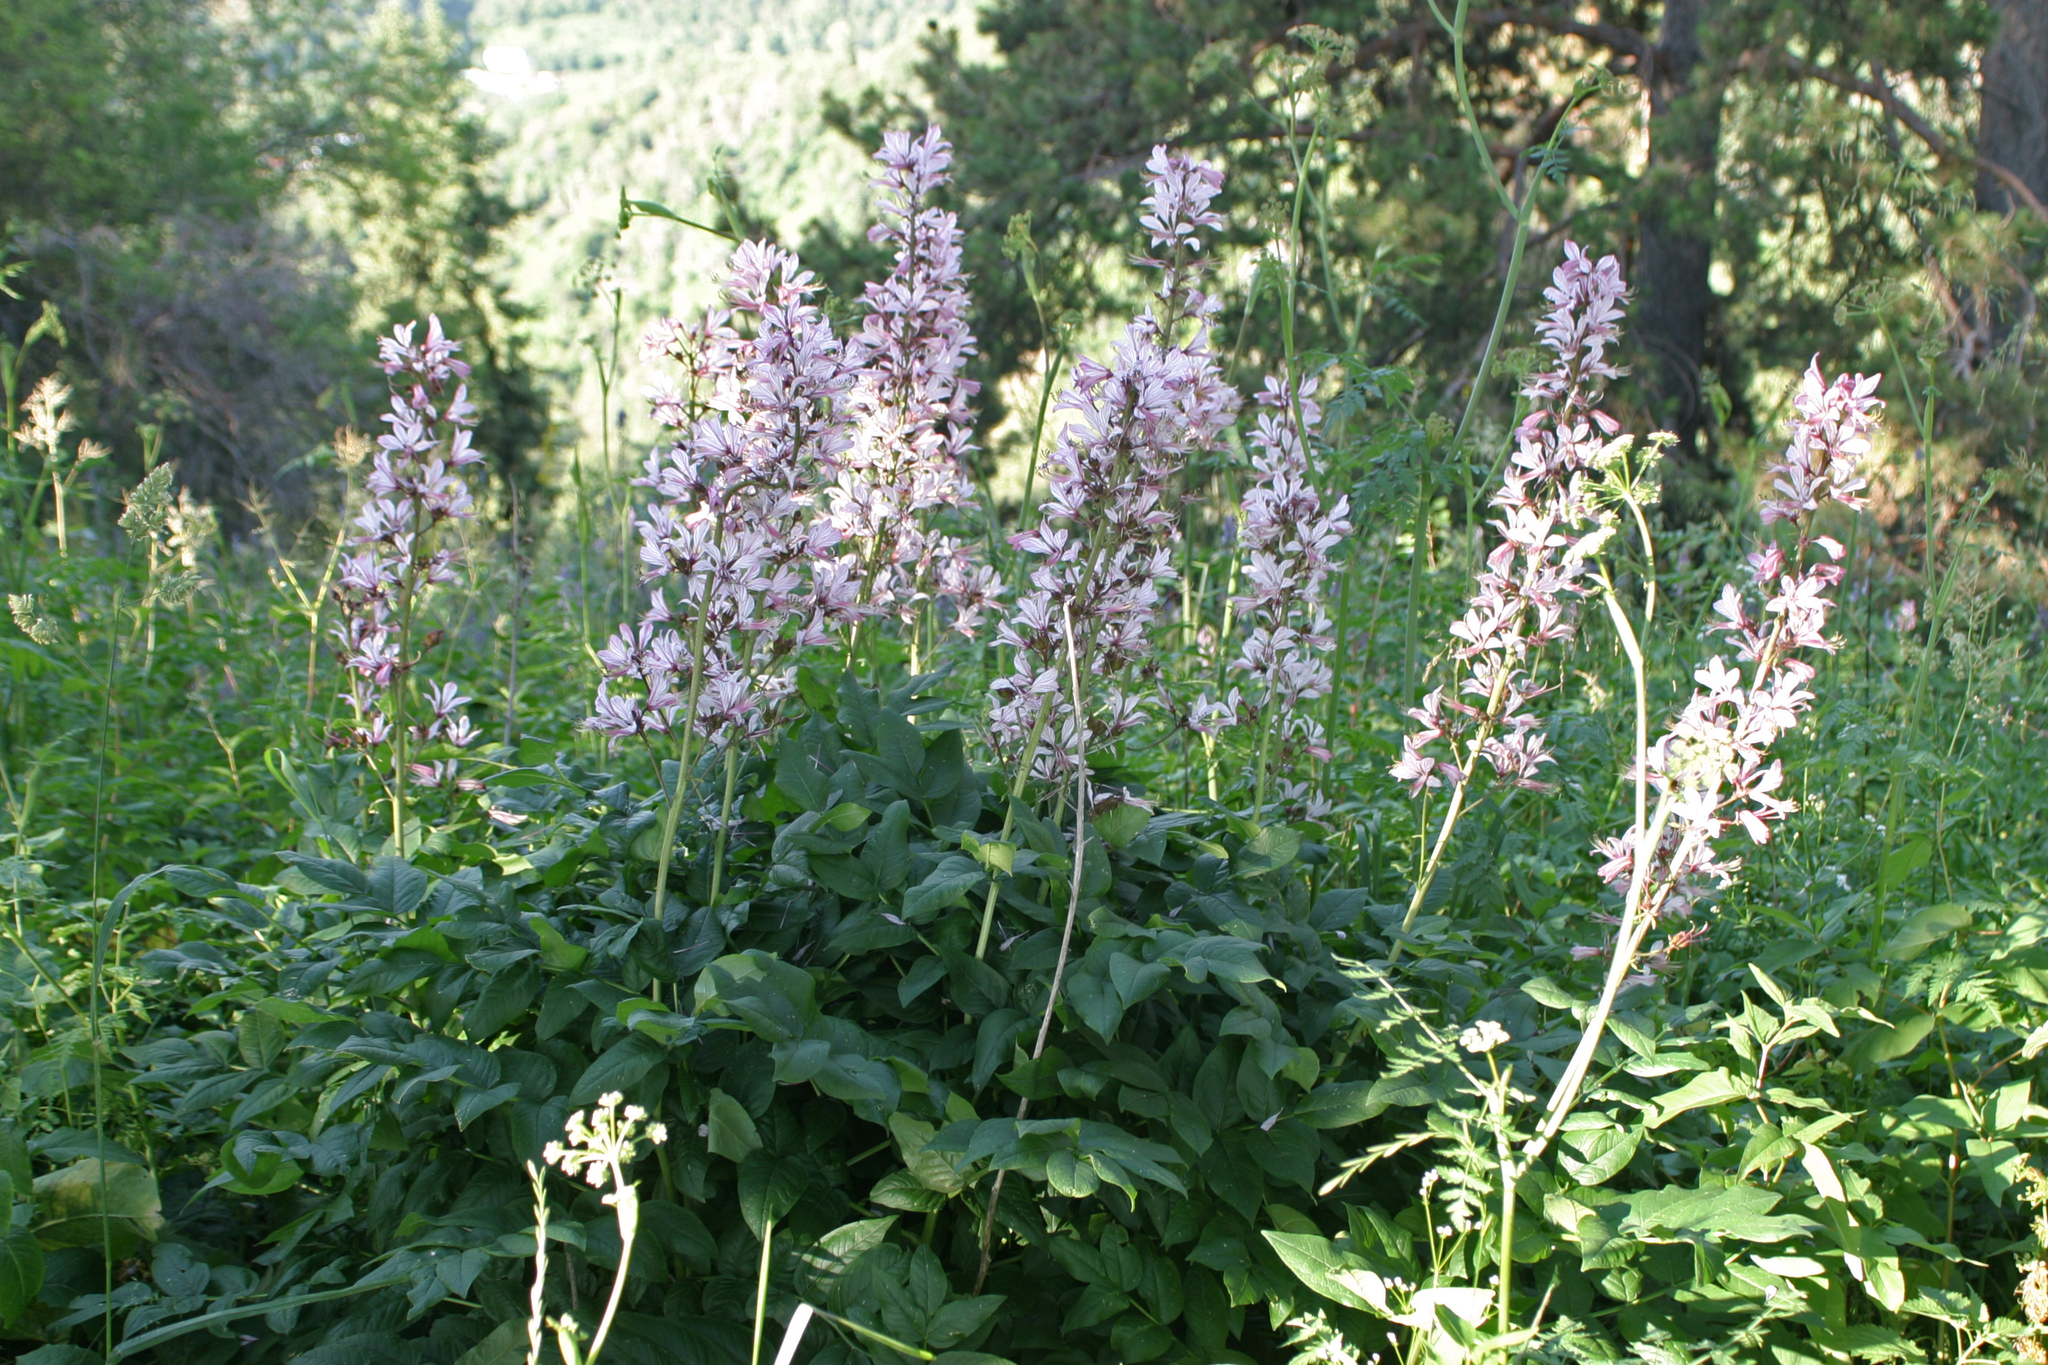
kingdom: Plantae
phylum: Tracheophyta
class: Magnoliopsida
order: Sapindales
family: Rutaceae
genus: Dictamnus
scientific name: Dictamnus albus
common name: Gasplant
